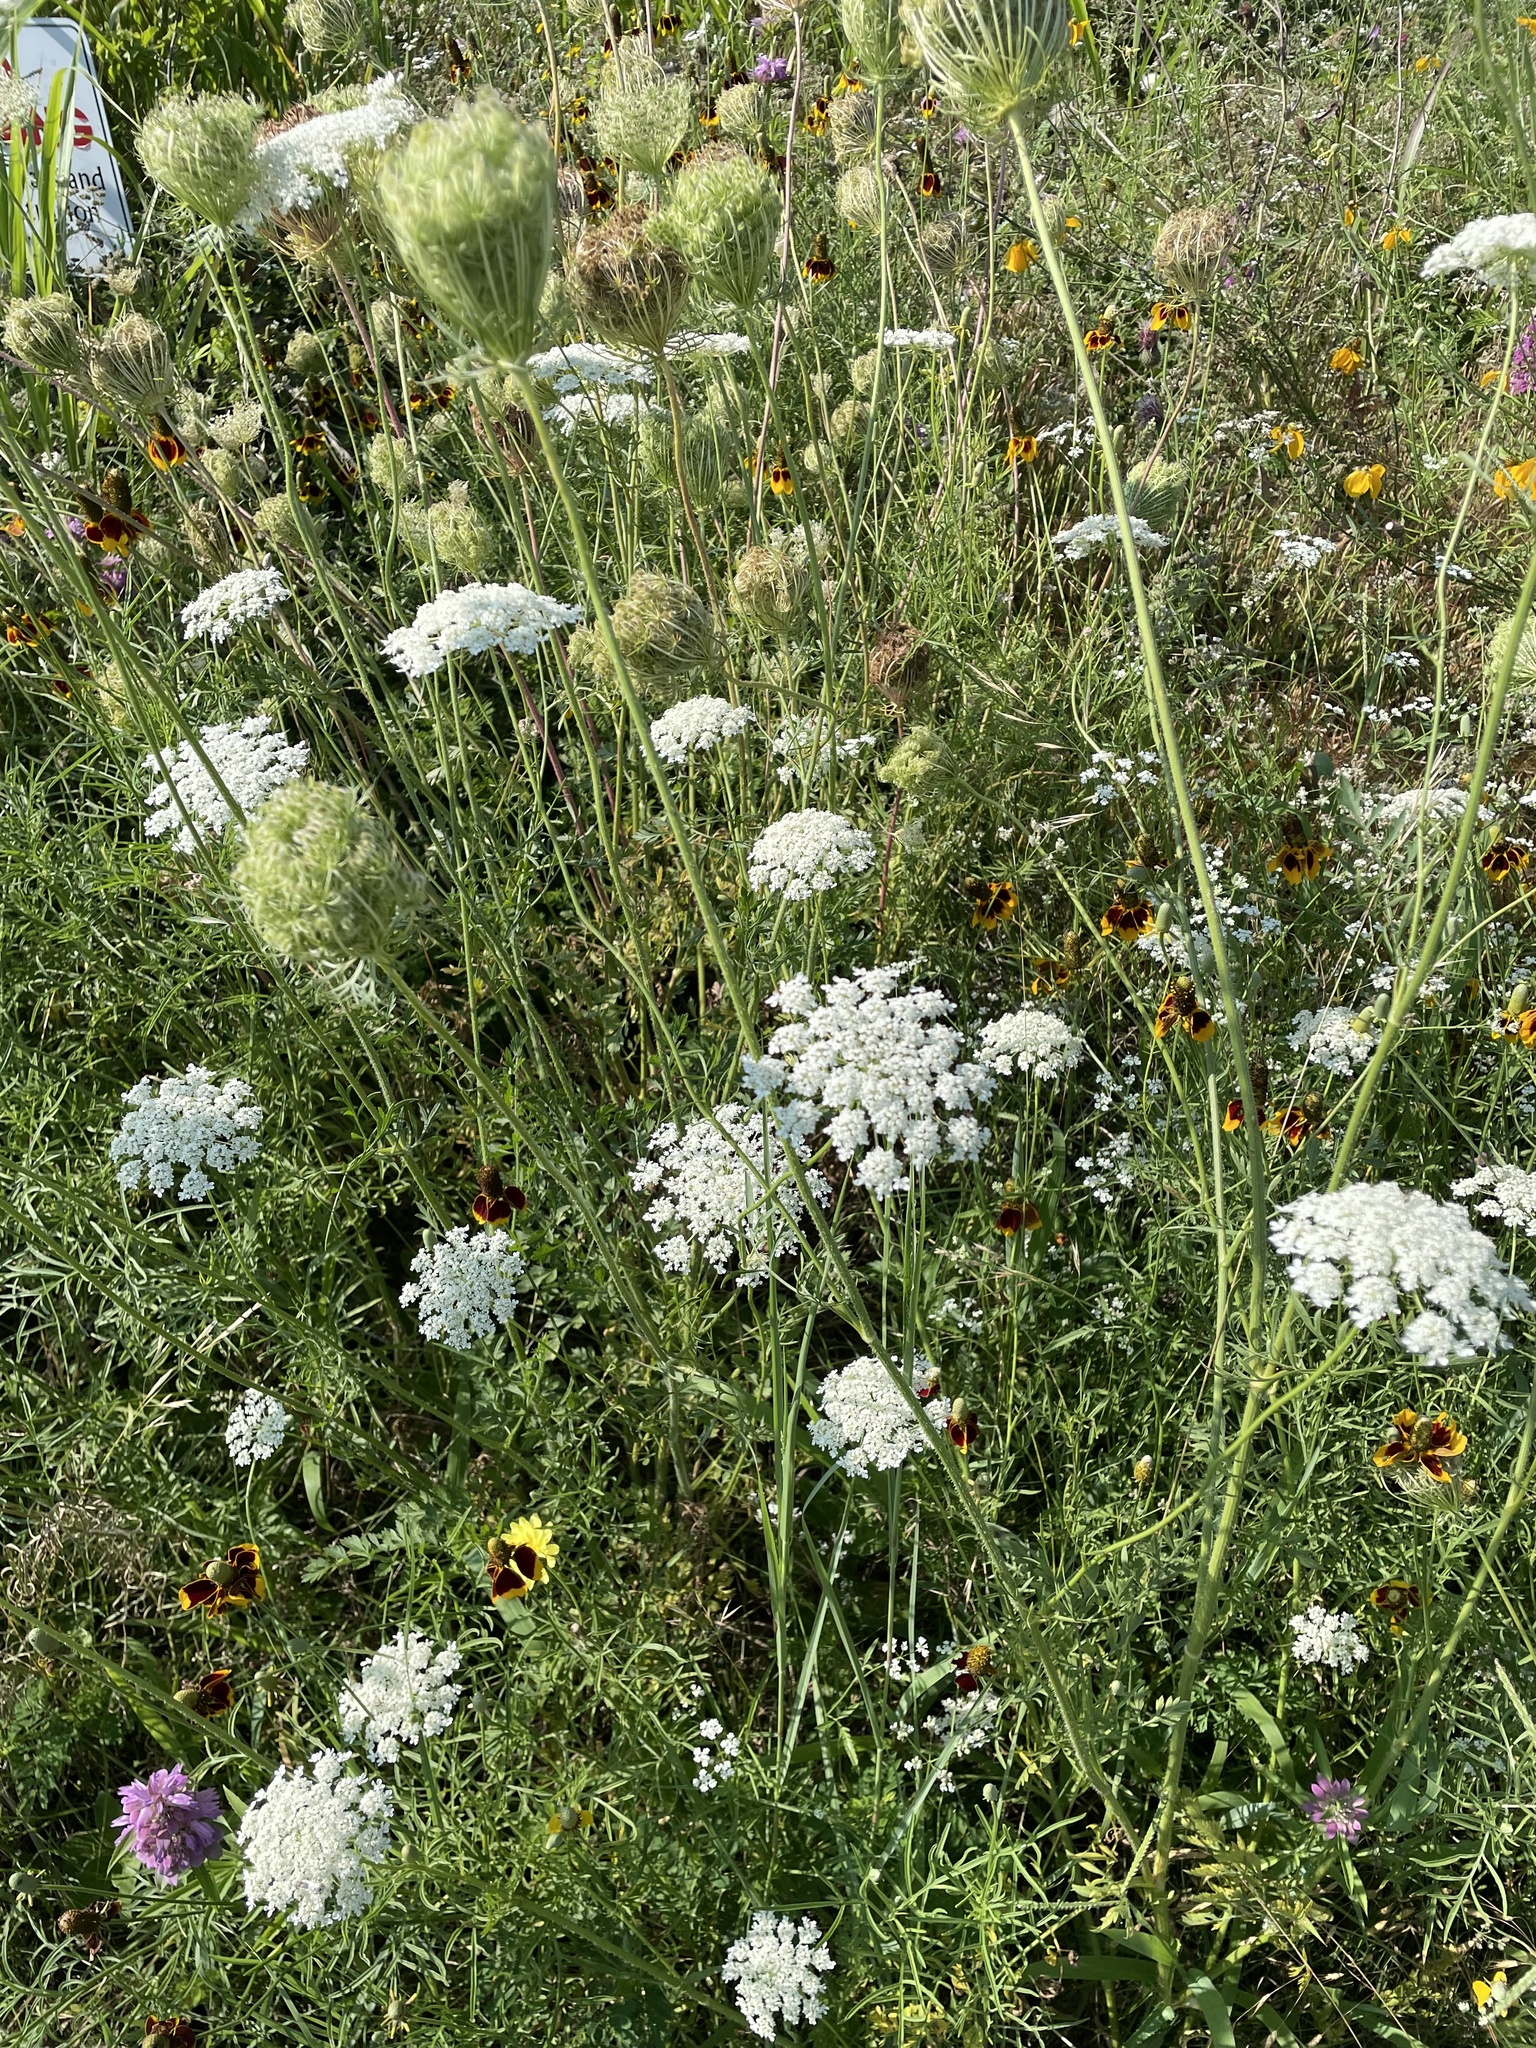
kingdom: Plantae
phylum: Tracheophyta
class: Magnoliopsida
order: Apiales
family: Apiaceae
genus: Daucus
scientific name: Daucus carota
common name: Wild carrot
